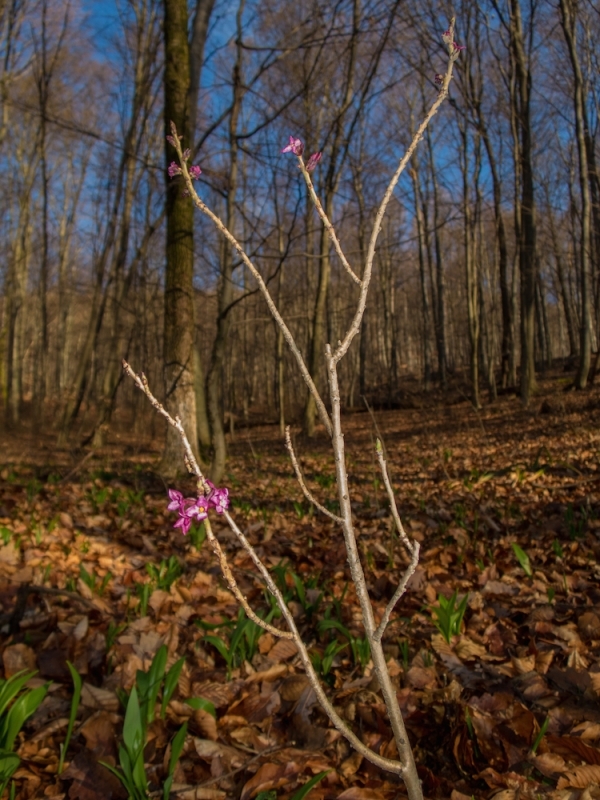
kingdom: Plantae
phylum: Tracheophyta
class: Magnoliopsida
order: Malvales
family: Thymelaeaceae
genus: Daphne
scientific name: Daphne mezereum
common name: Mezereon
